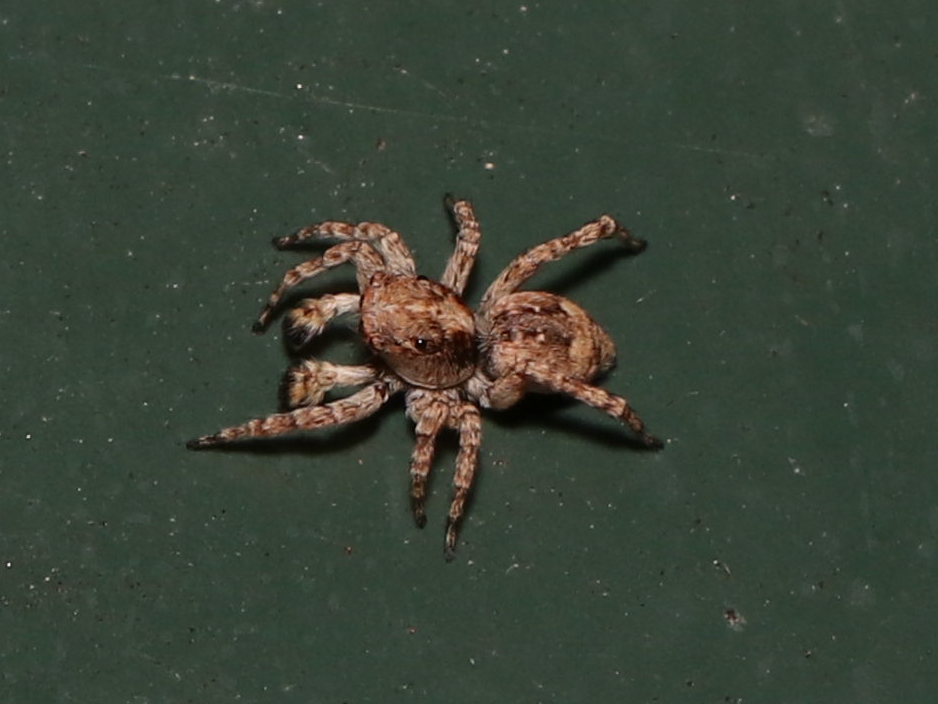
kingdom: Animalia
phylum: Arthropoda
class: Arachnida
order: Araneae
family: Salticidae
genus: Attulus
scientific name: Attulus fasciger
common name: Asiatic wall jumping spider
